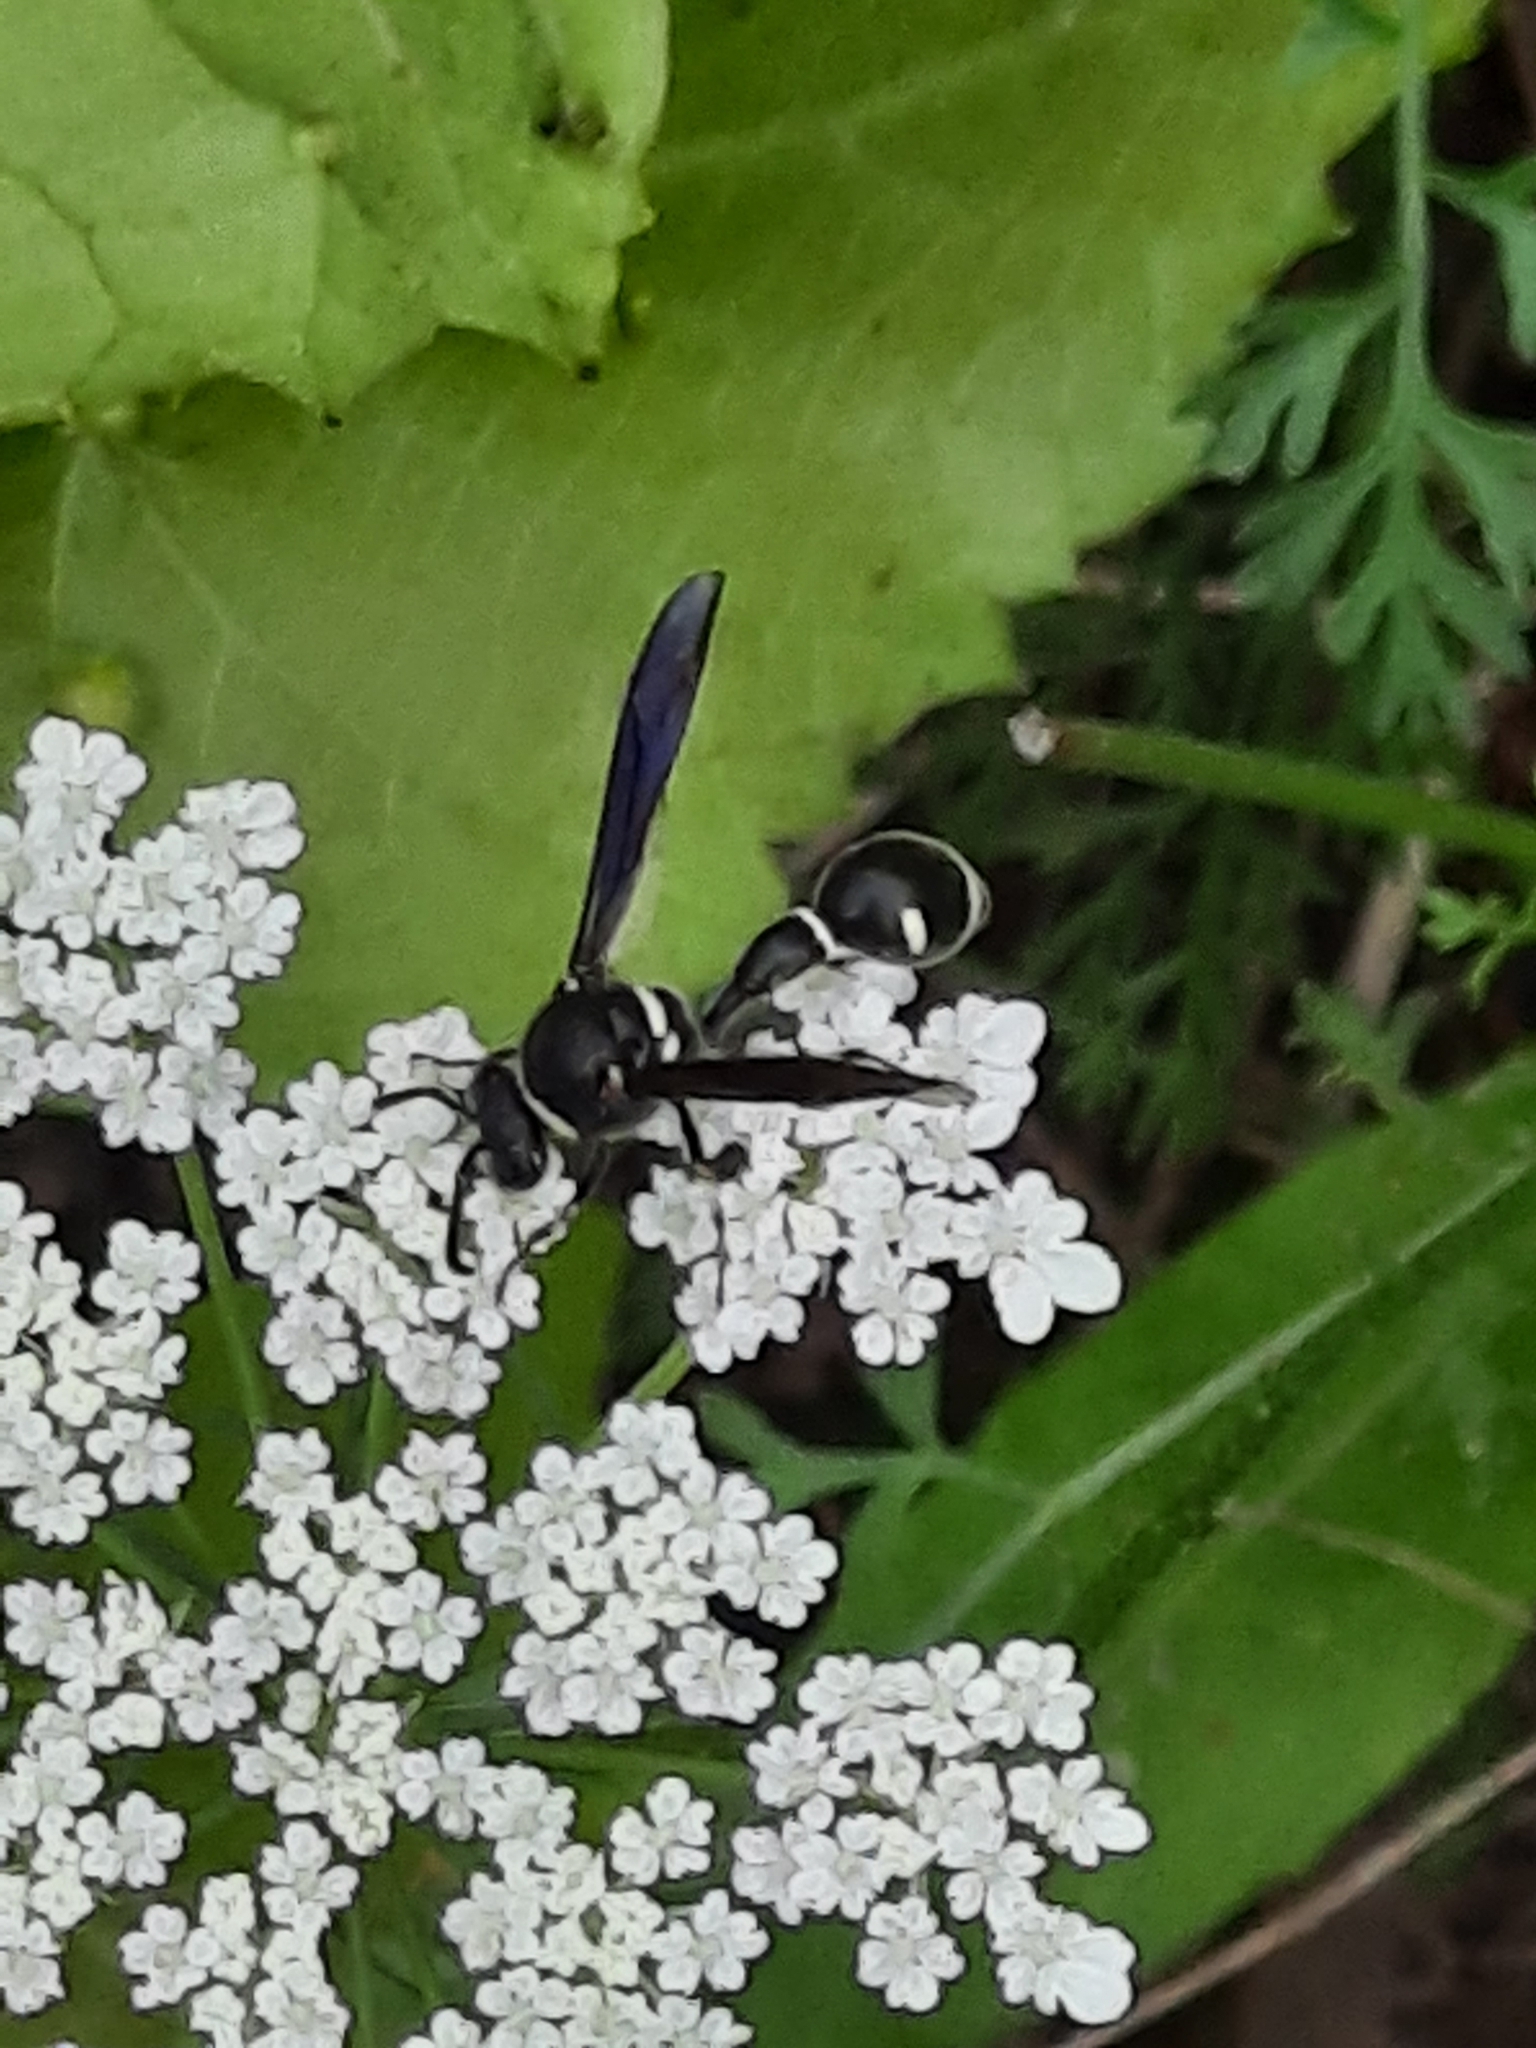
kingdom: Animalia
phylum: Arthropoda
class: Insecta
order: Hymenoptera
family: Vespidae
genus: Eumenes
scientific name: Eumenes fraternus
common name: Fraternal potter wasp
